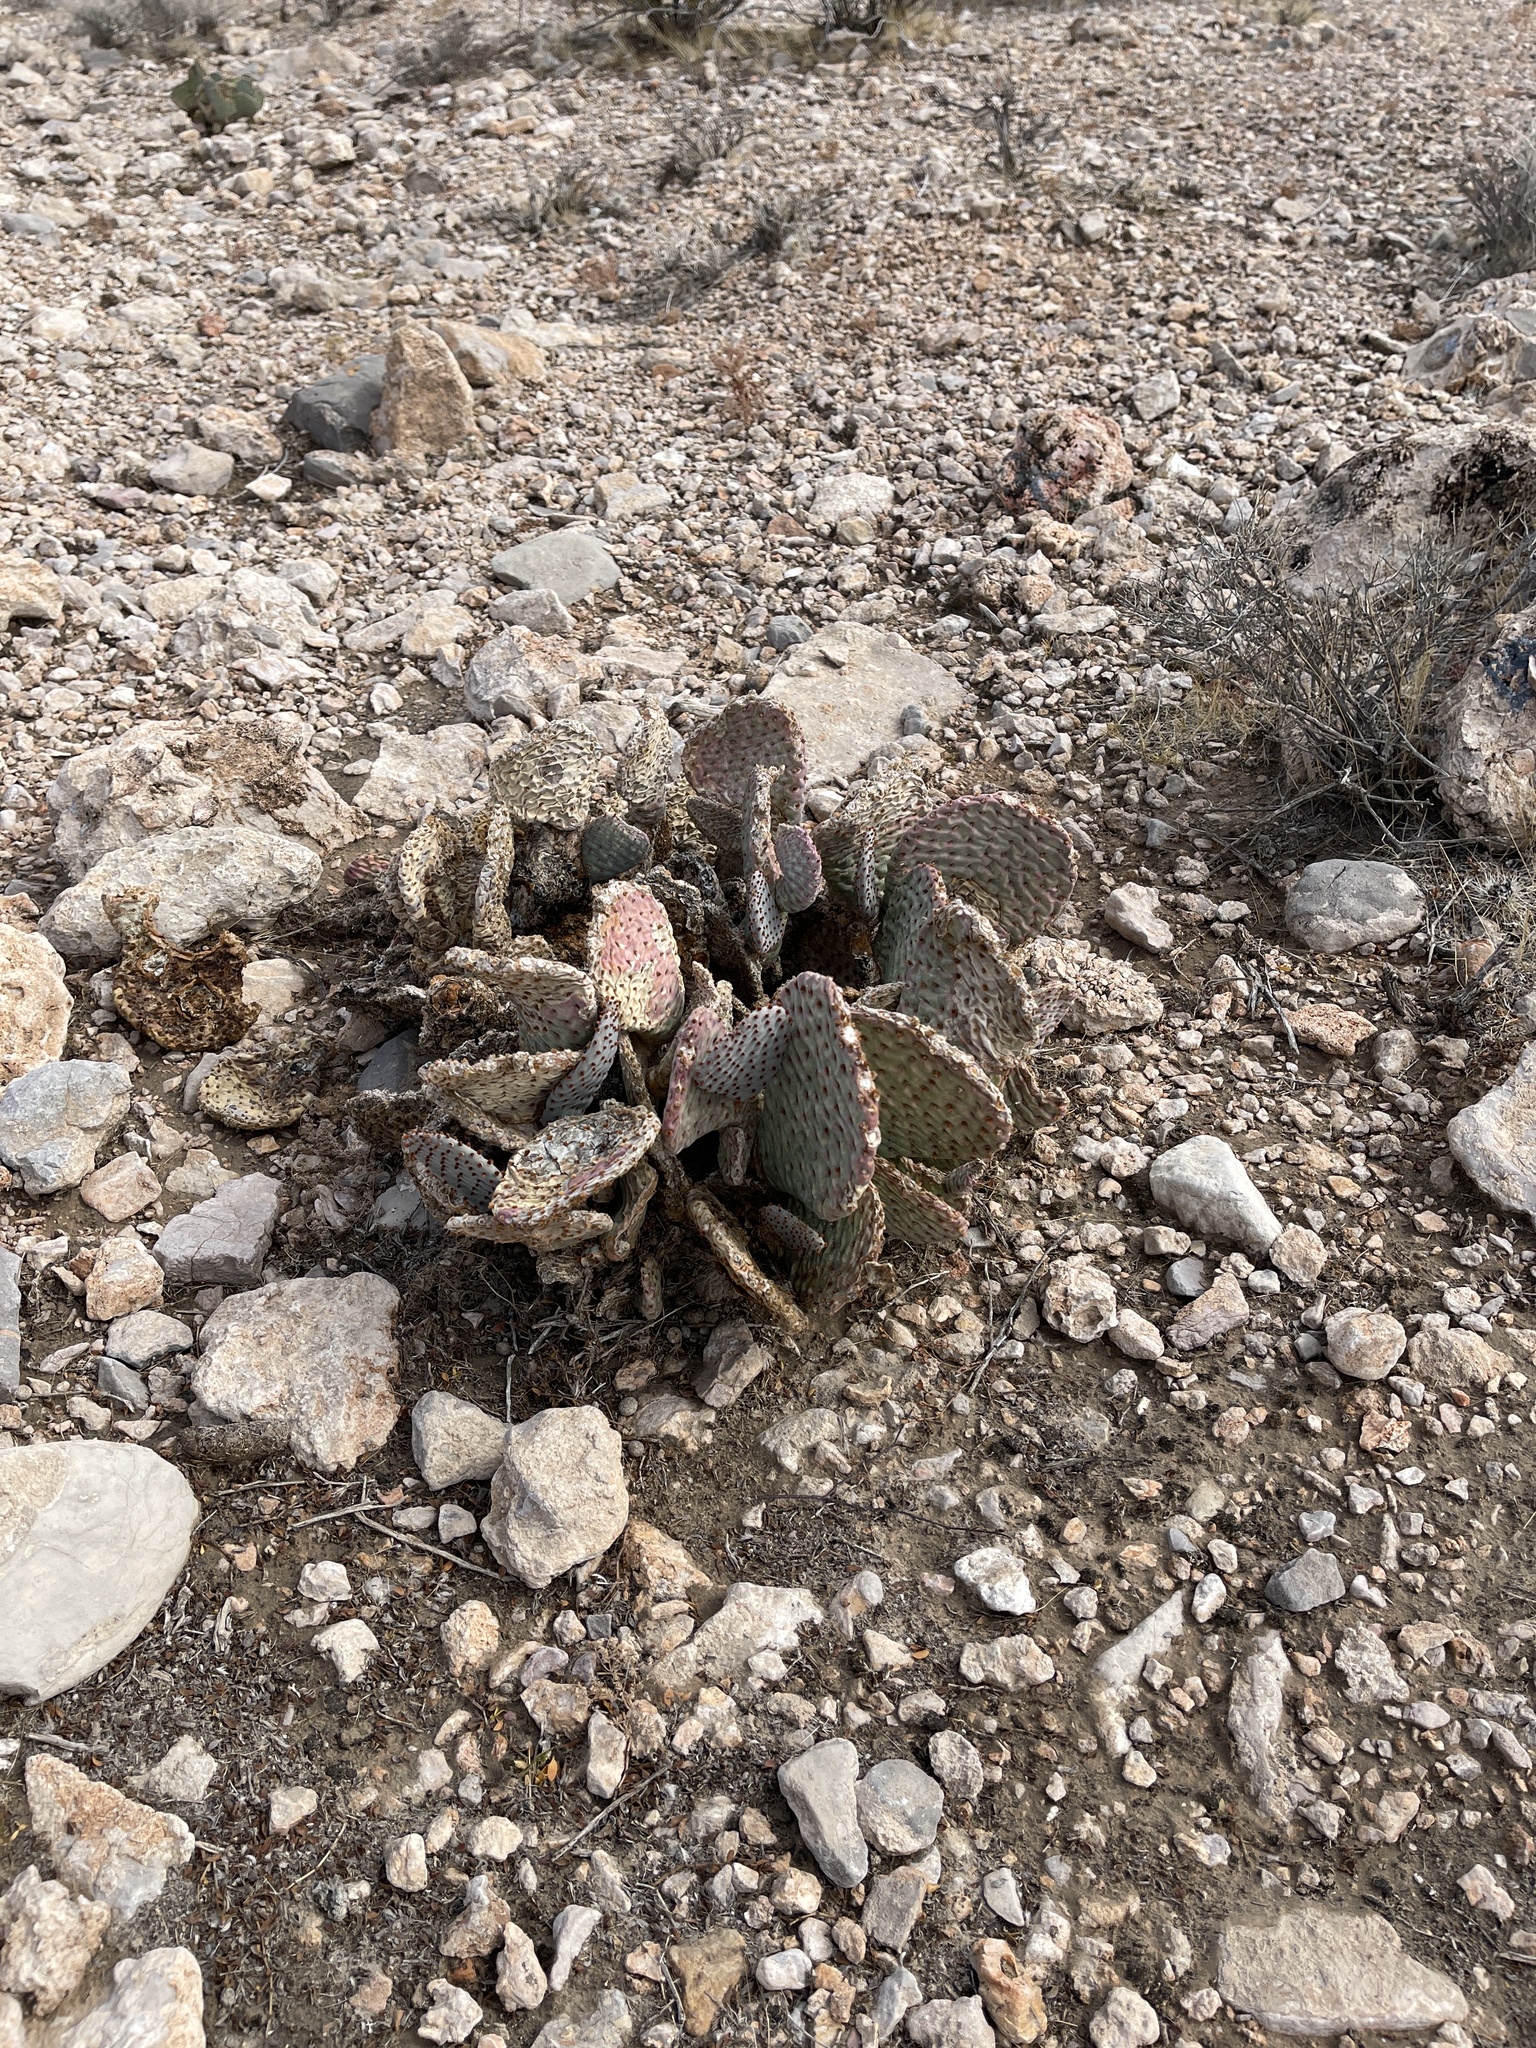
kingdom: Plantae
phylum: Tracheophyta
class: Magnoliopsida
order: Caryophyllales
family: Cactaceae
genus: Opuntia
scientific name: Opuntia basilaris
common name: Beavertail prickly-pear
